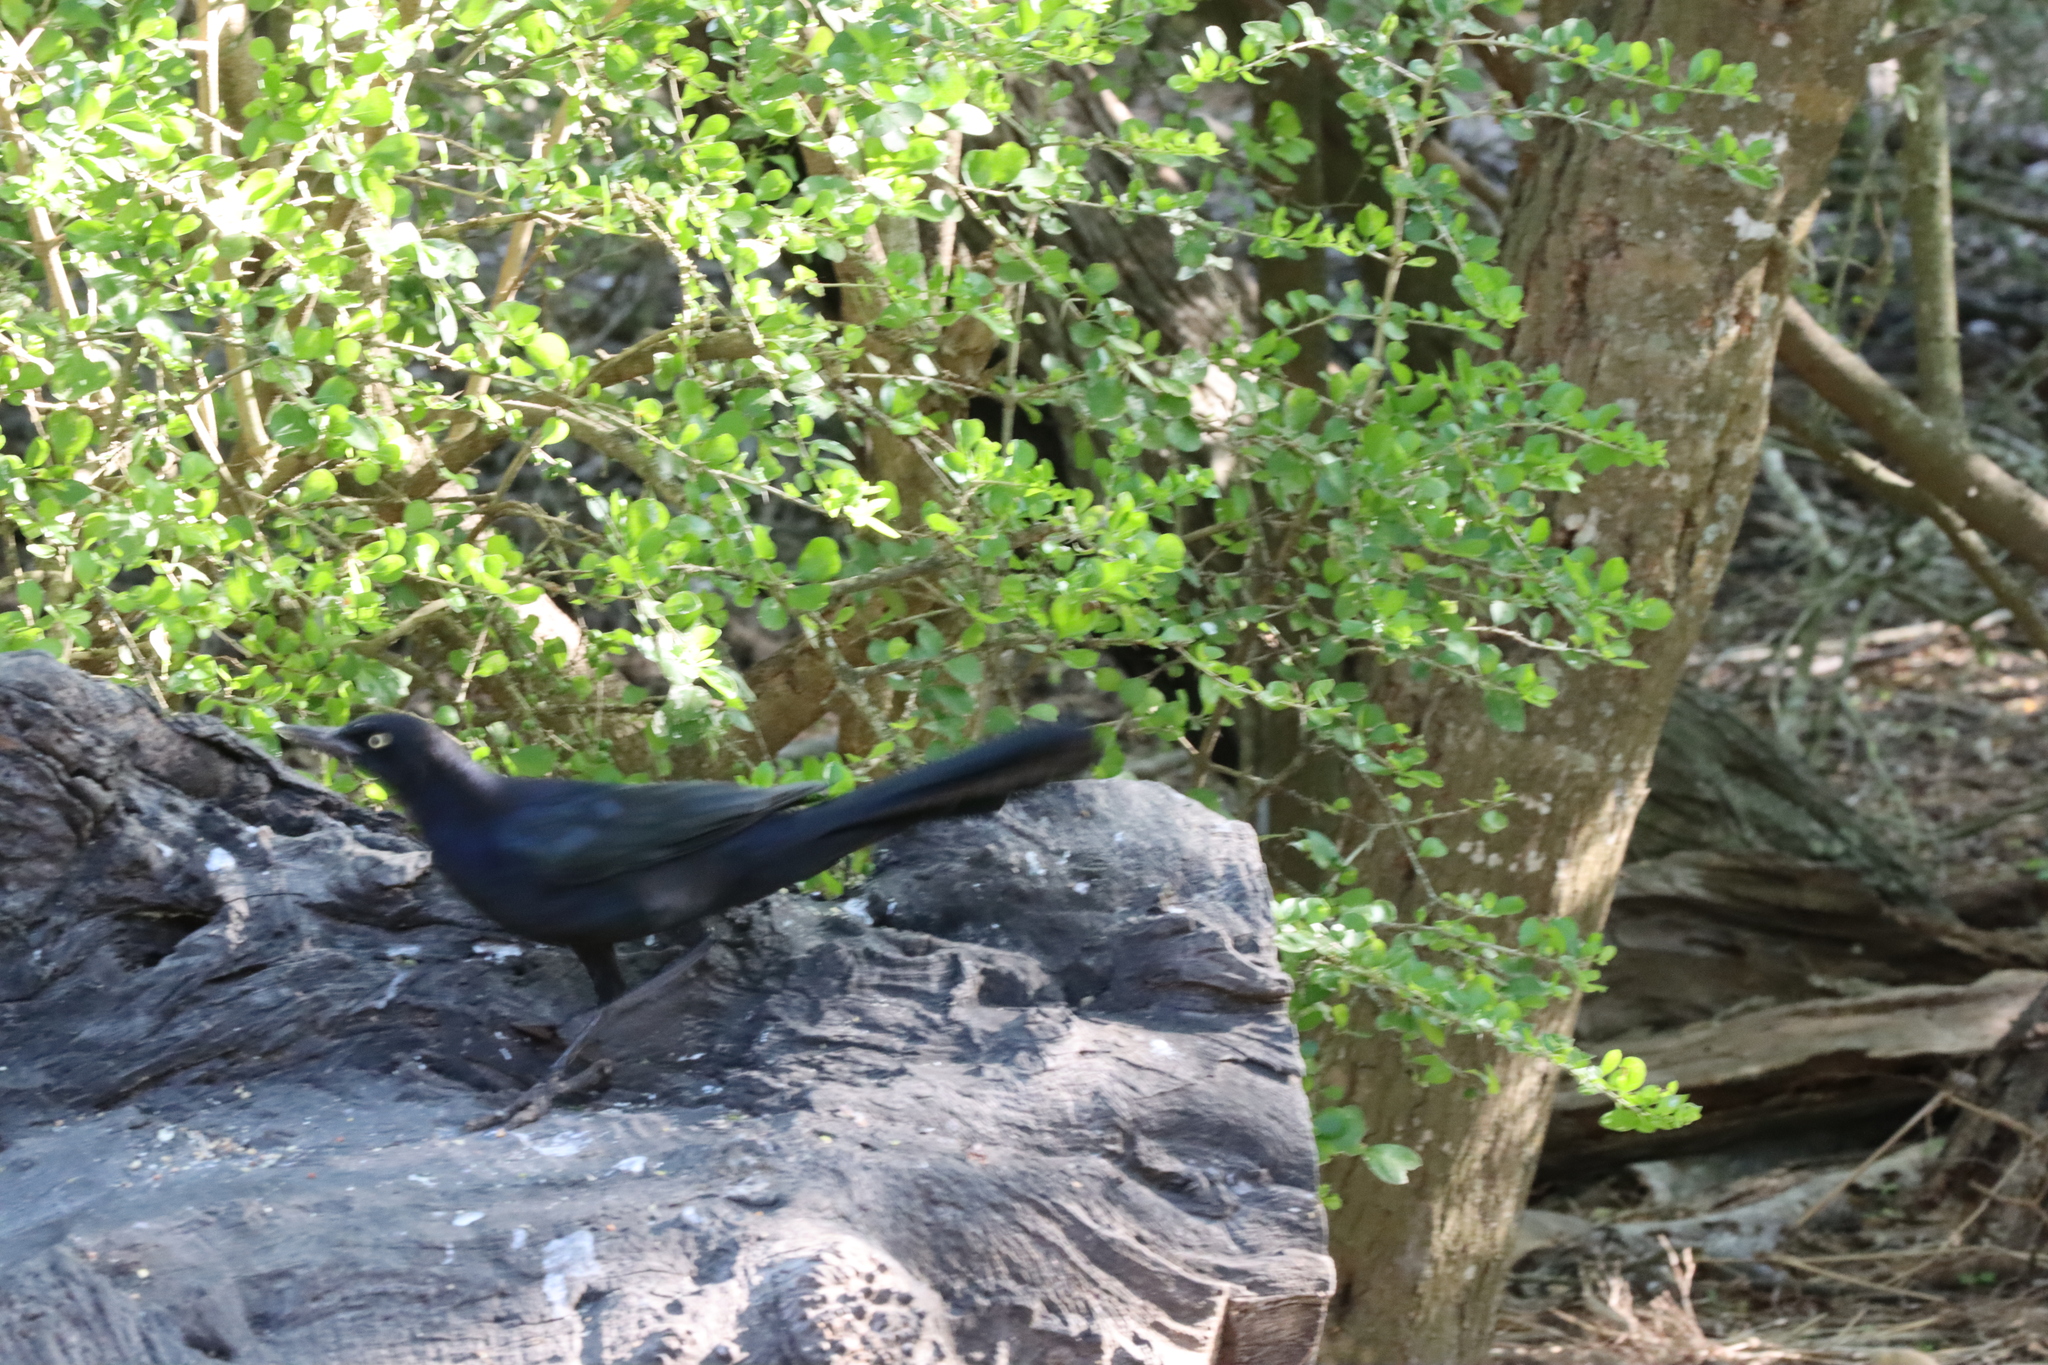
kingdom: Animalia
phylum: Chordata
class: Aves
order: Passeriformes
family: Icteridae
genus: Quiscalus
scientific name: Quiscalus mexicanus
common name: Great-tailed grackle
